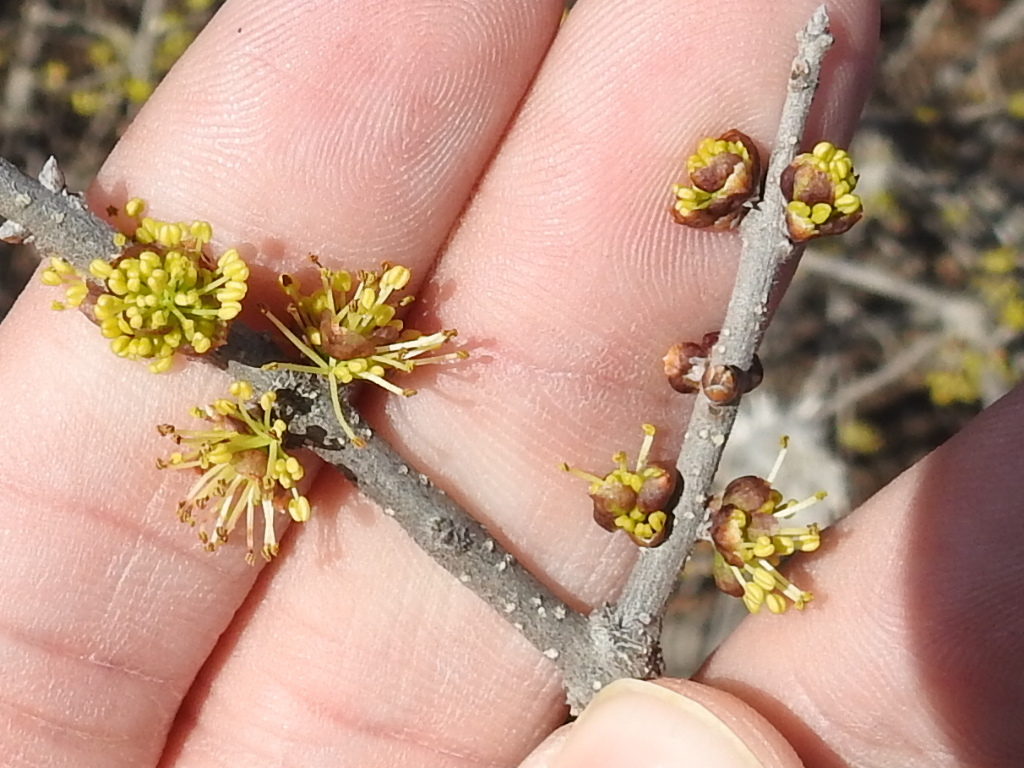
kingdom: Plantae
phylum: Tracheophyta
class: Magnoliopsida
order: Lamiales
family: Oleaceae
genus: Forestiera
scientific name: Forestiera pubescens
